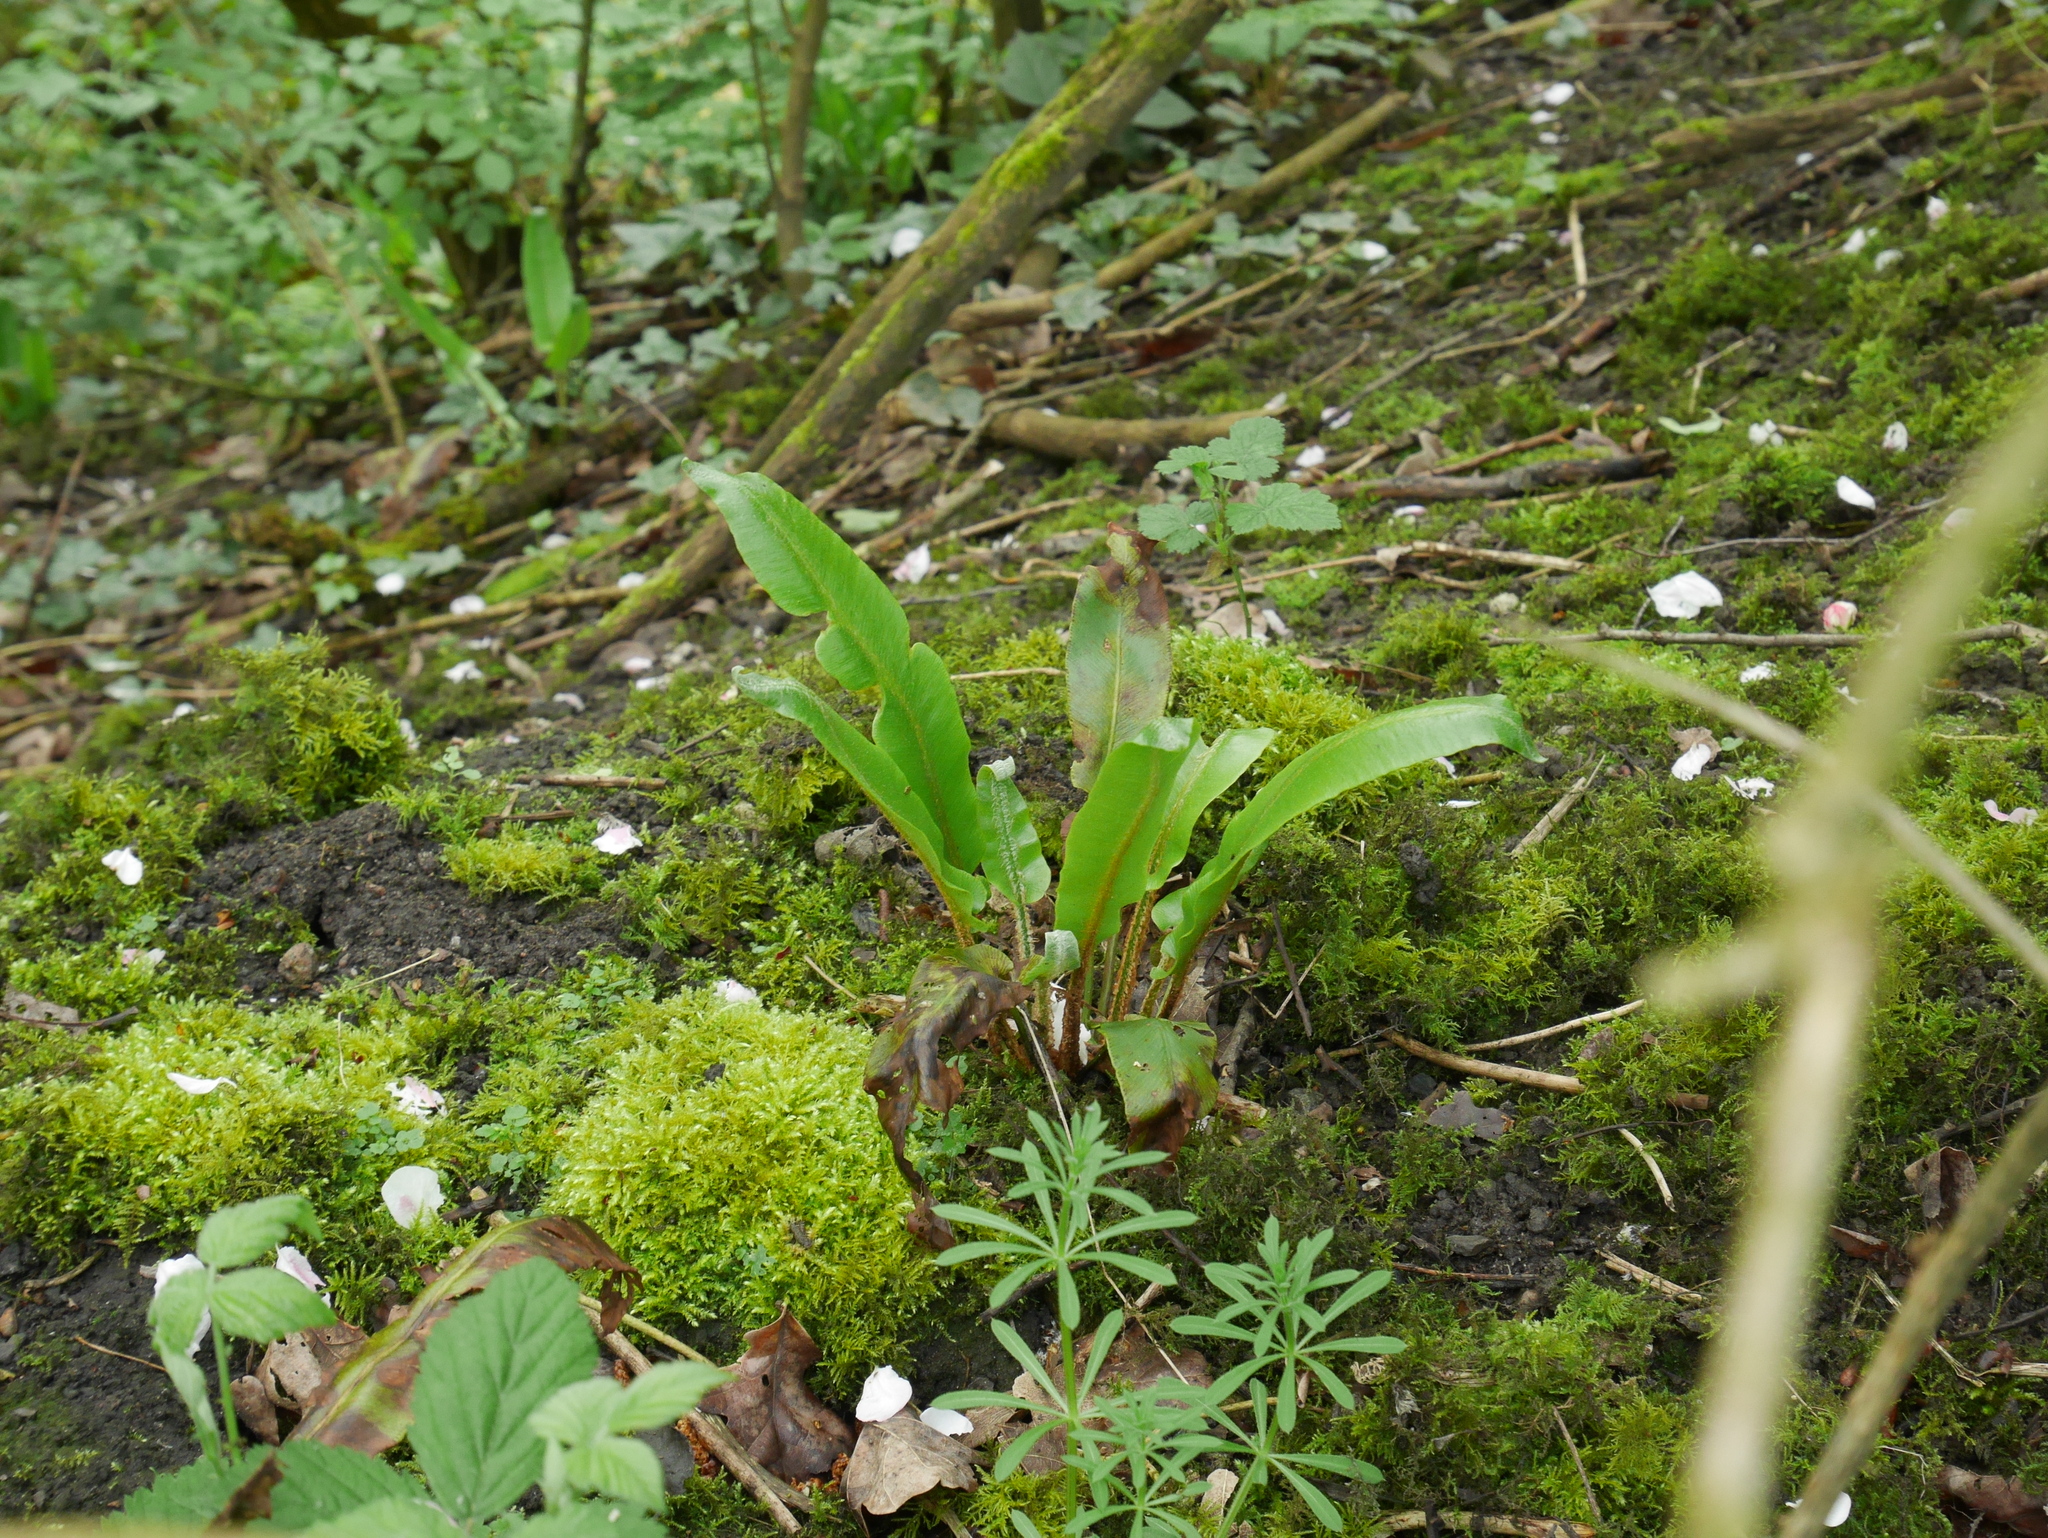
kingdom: Plantae
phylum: Tracheophyta
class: Polypodiopsida
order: Polypodiales
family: Aspleniaceae
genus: Asplenium
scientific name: Asplenium scolopendrium
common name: Hart's-tongue fern
